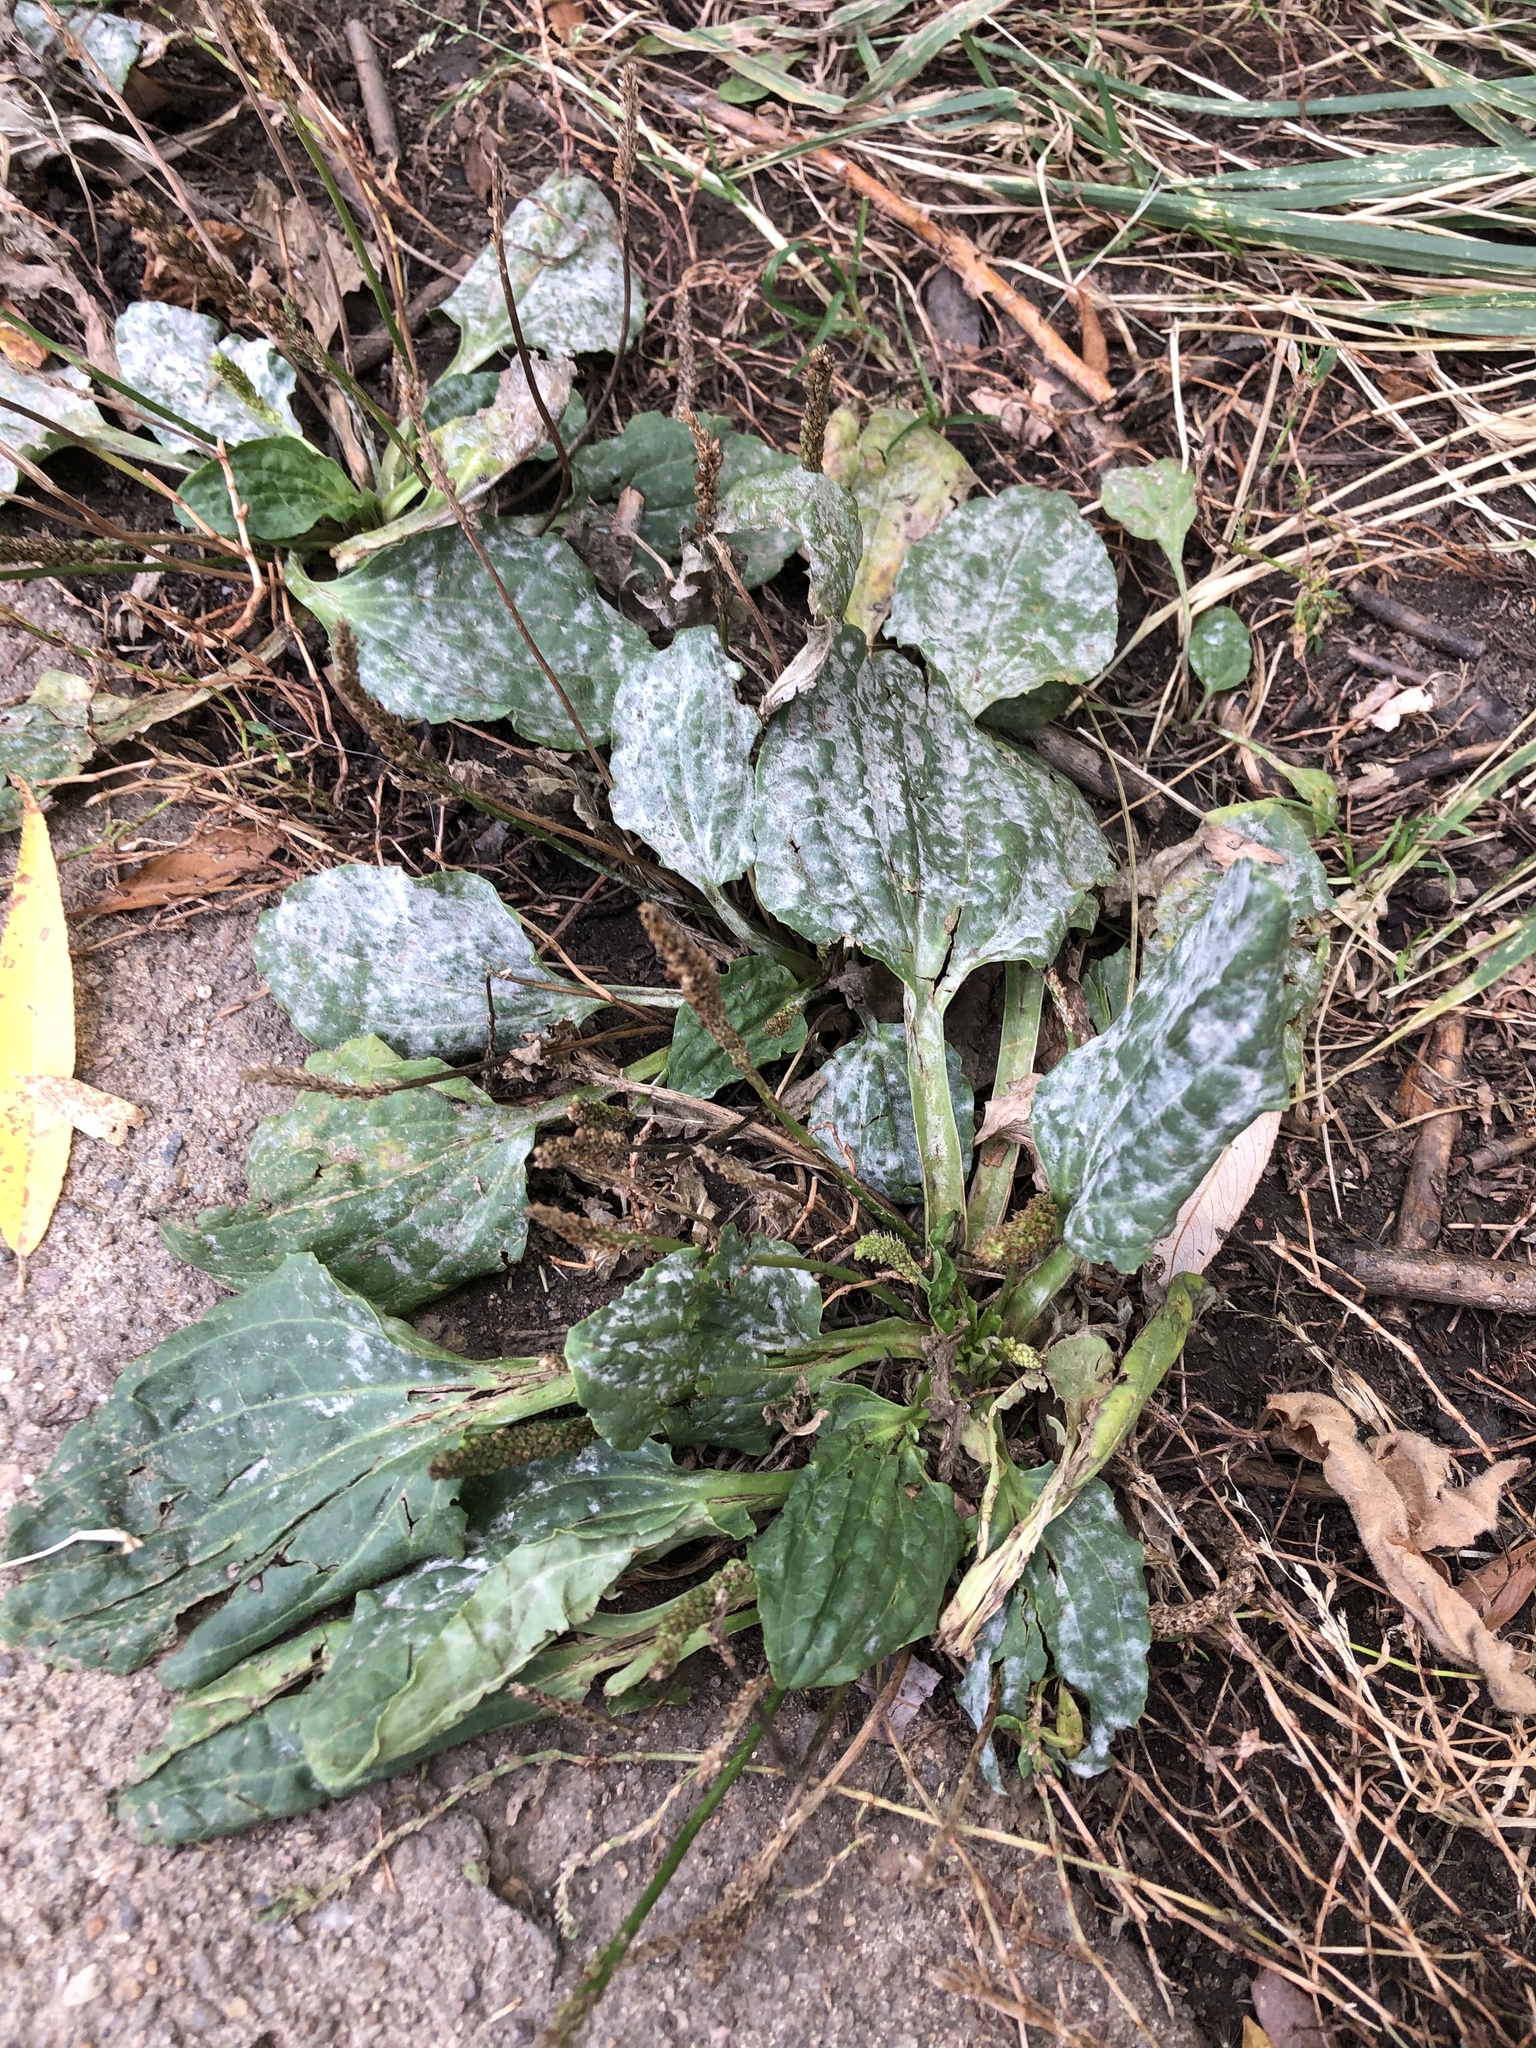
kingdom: Plantae
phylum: Tracheophyta
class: Magnoliopsida
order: Lamiales
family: Plantaginaceae
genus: Plantago
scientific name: Plantago major
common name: Common plantain
